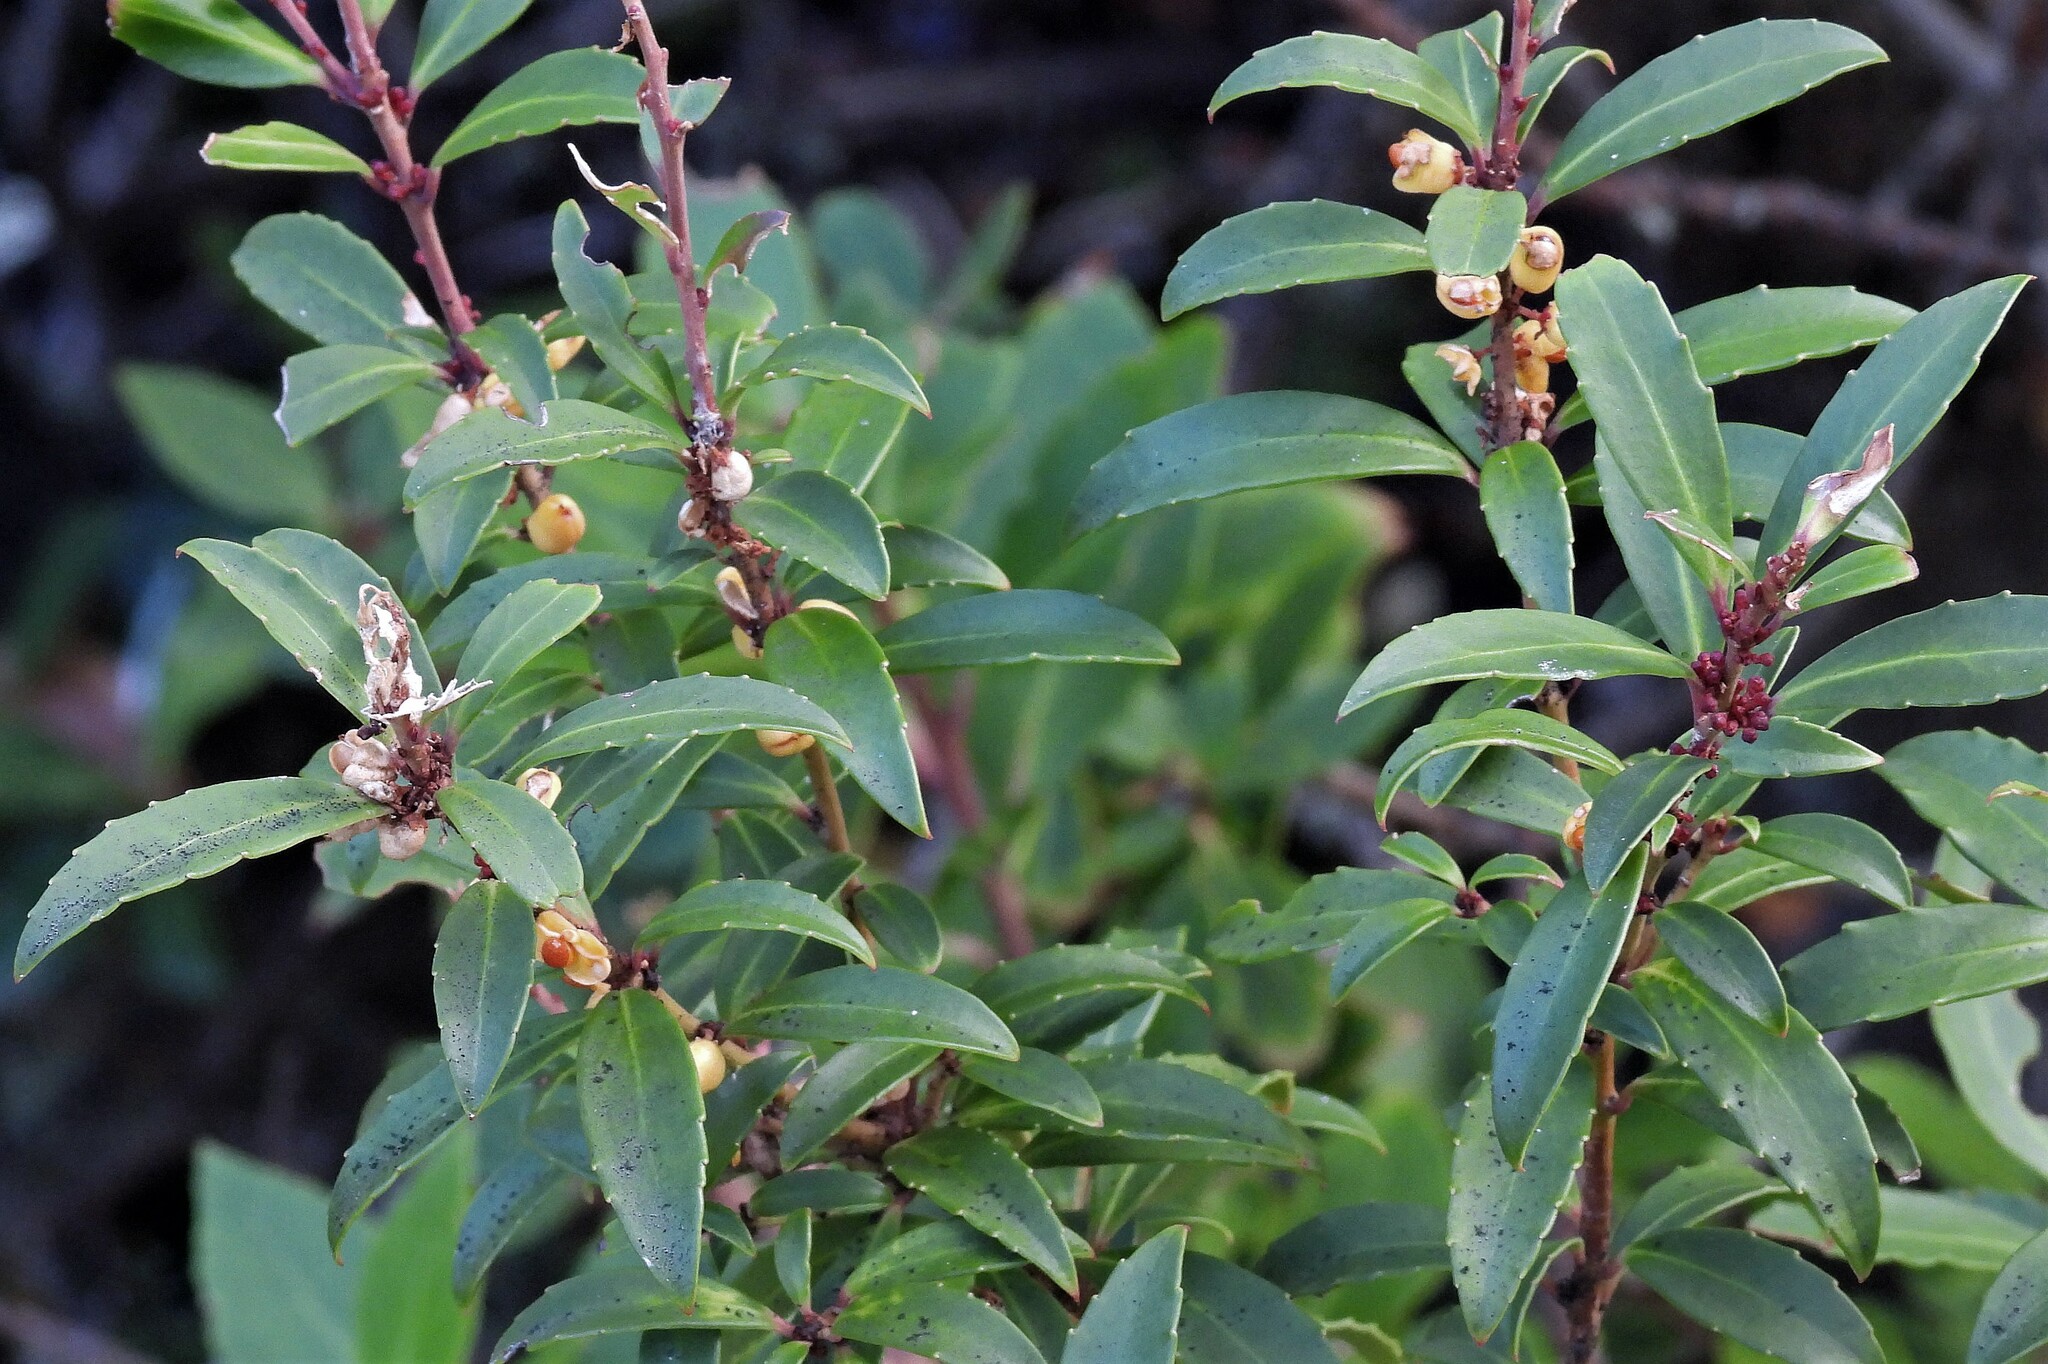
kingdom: Plantae
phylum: Tracheophyta
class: Magnoliopsida
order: Celastrales
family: Celastraceae
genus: Maytenus
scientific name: Maytenus magellanica
